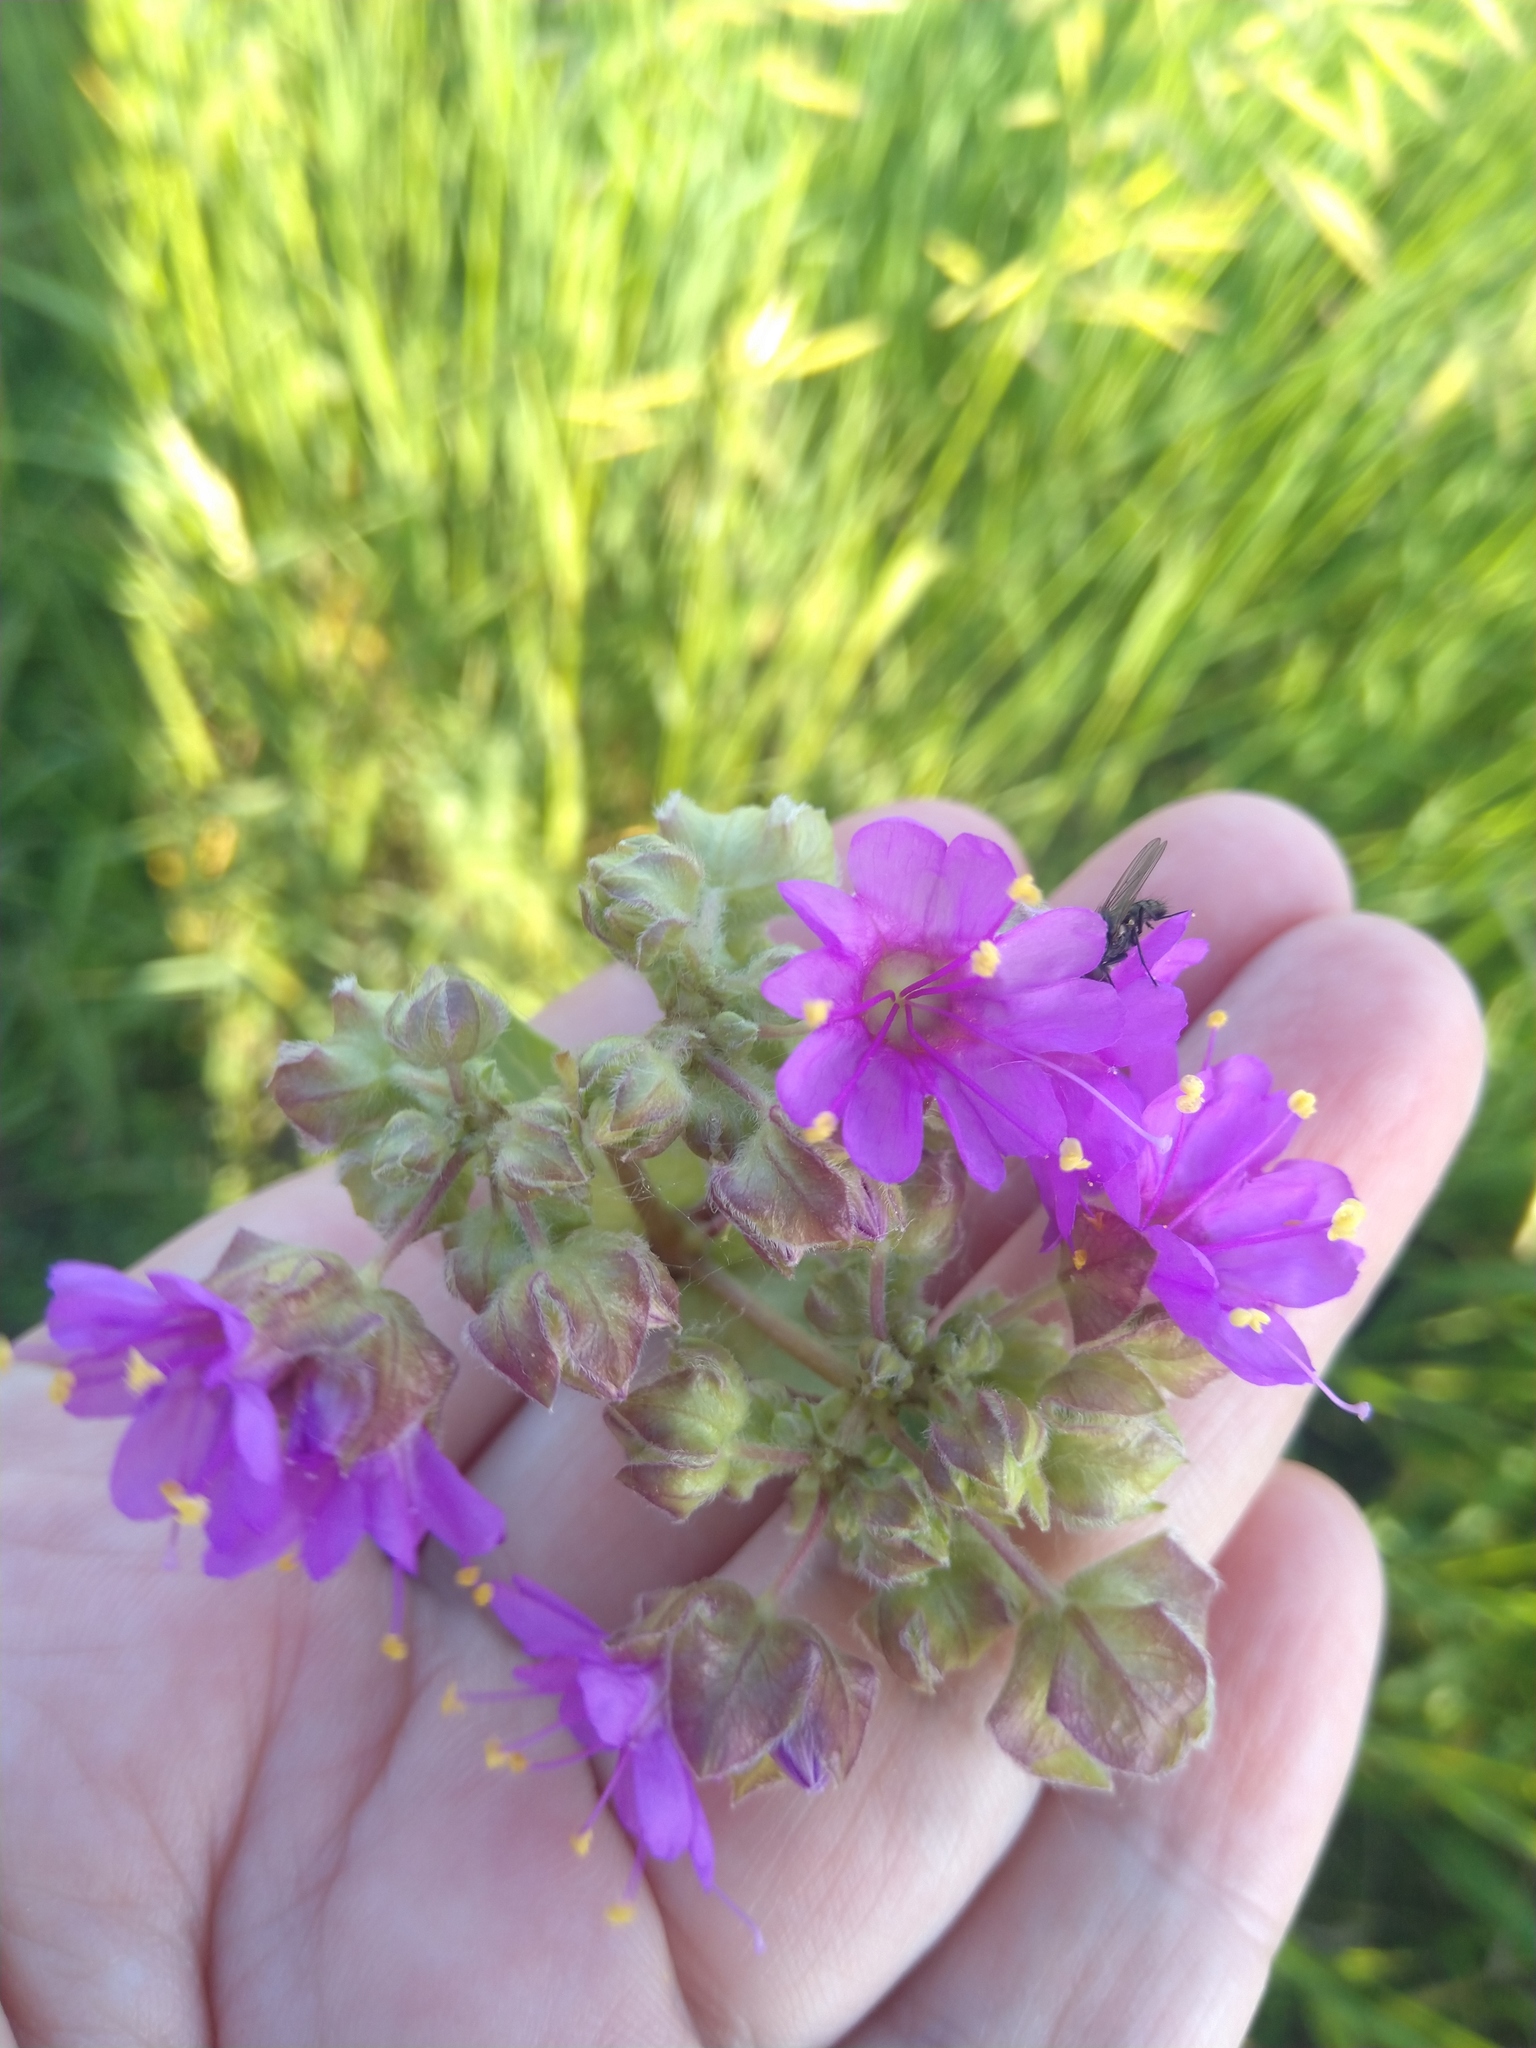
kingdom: Plantae
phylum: Tracheophyta
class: Magnoliopsida
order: Caryophyllales
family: Nyctaginaceae
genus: Mirabilis
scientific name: Mirabilis nyctaginea
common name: Umbrella wort
